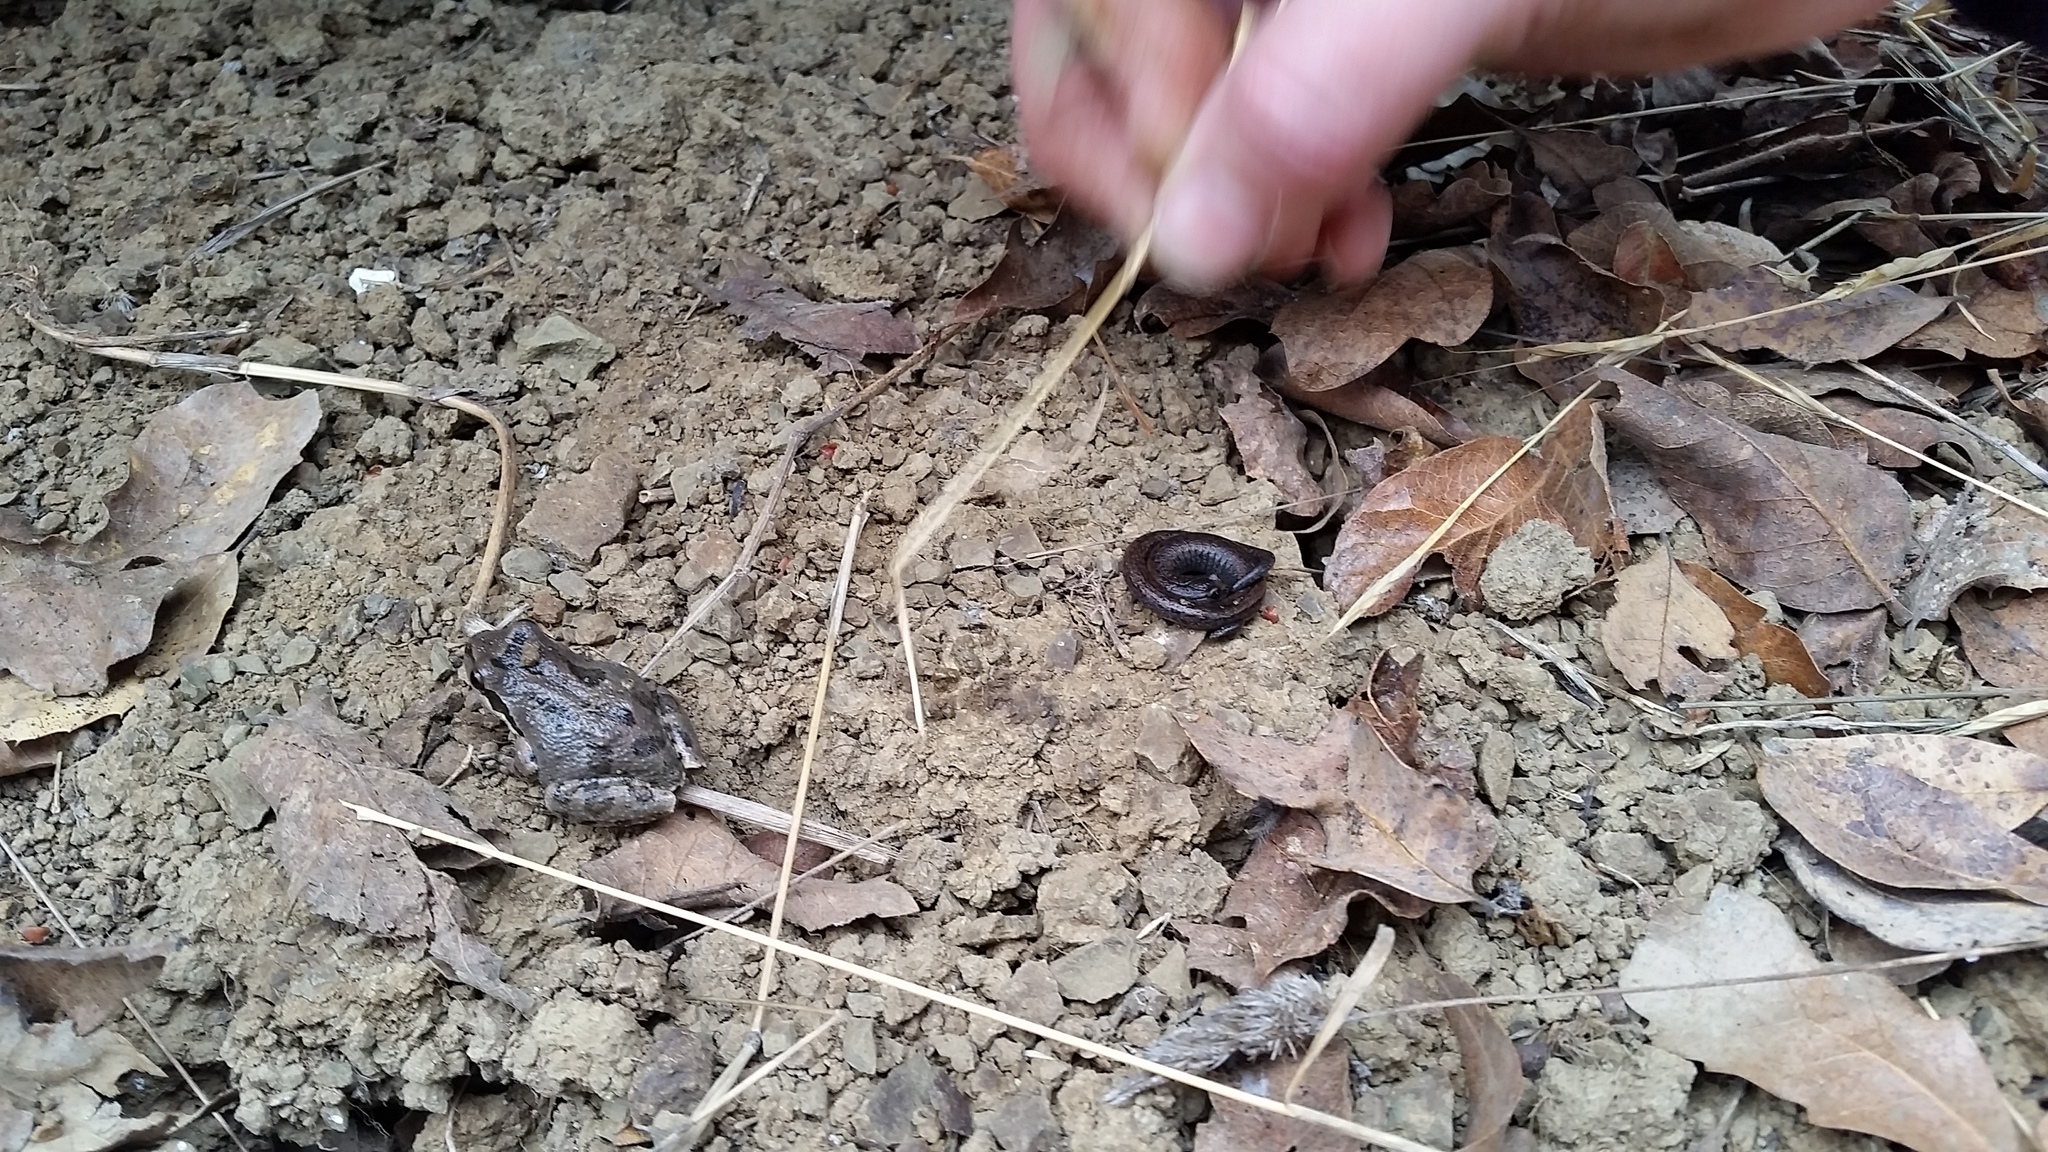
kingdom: Animalia
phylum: Chordata
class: Amphibia
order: Anura
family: Hylidae
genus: Pseudacris
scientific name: Pseudacris regilla
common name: Pacific chorus frog
